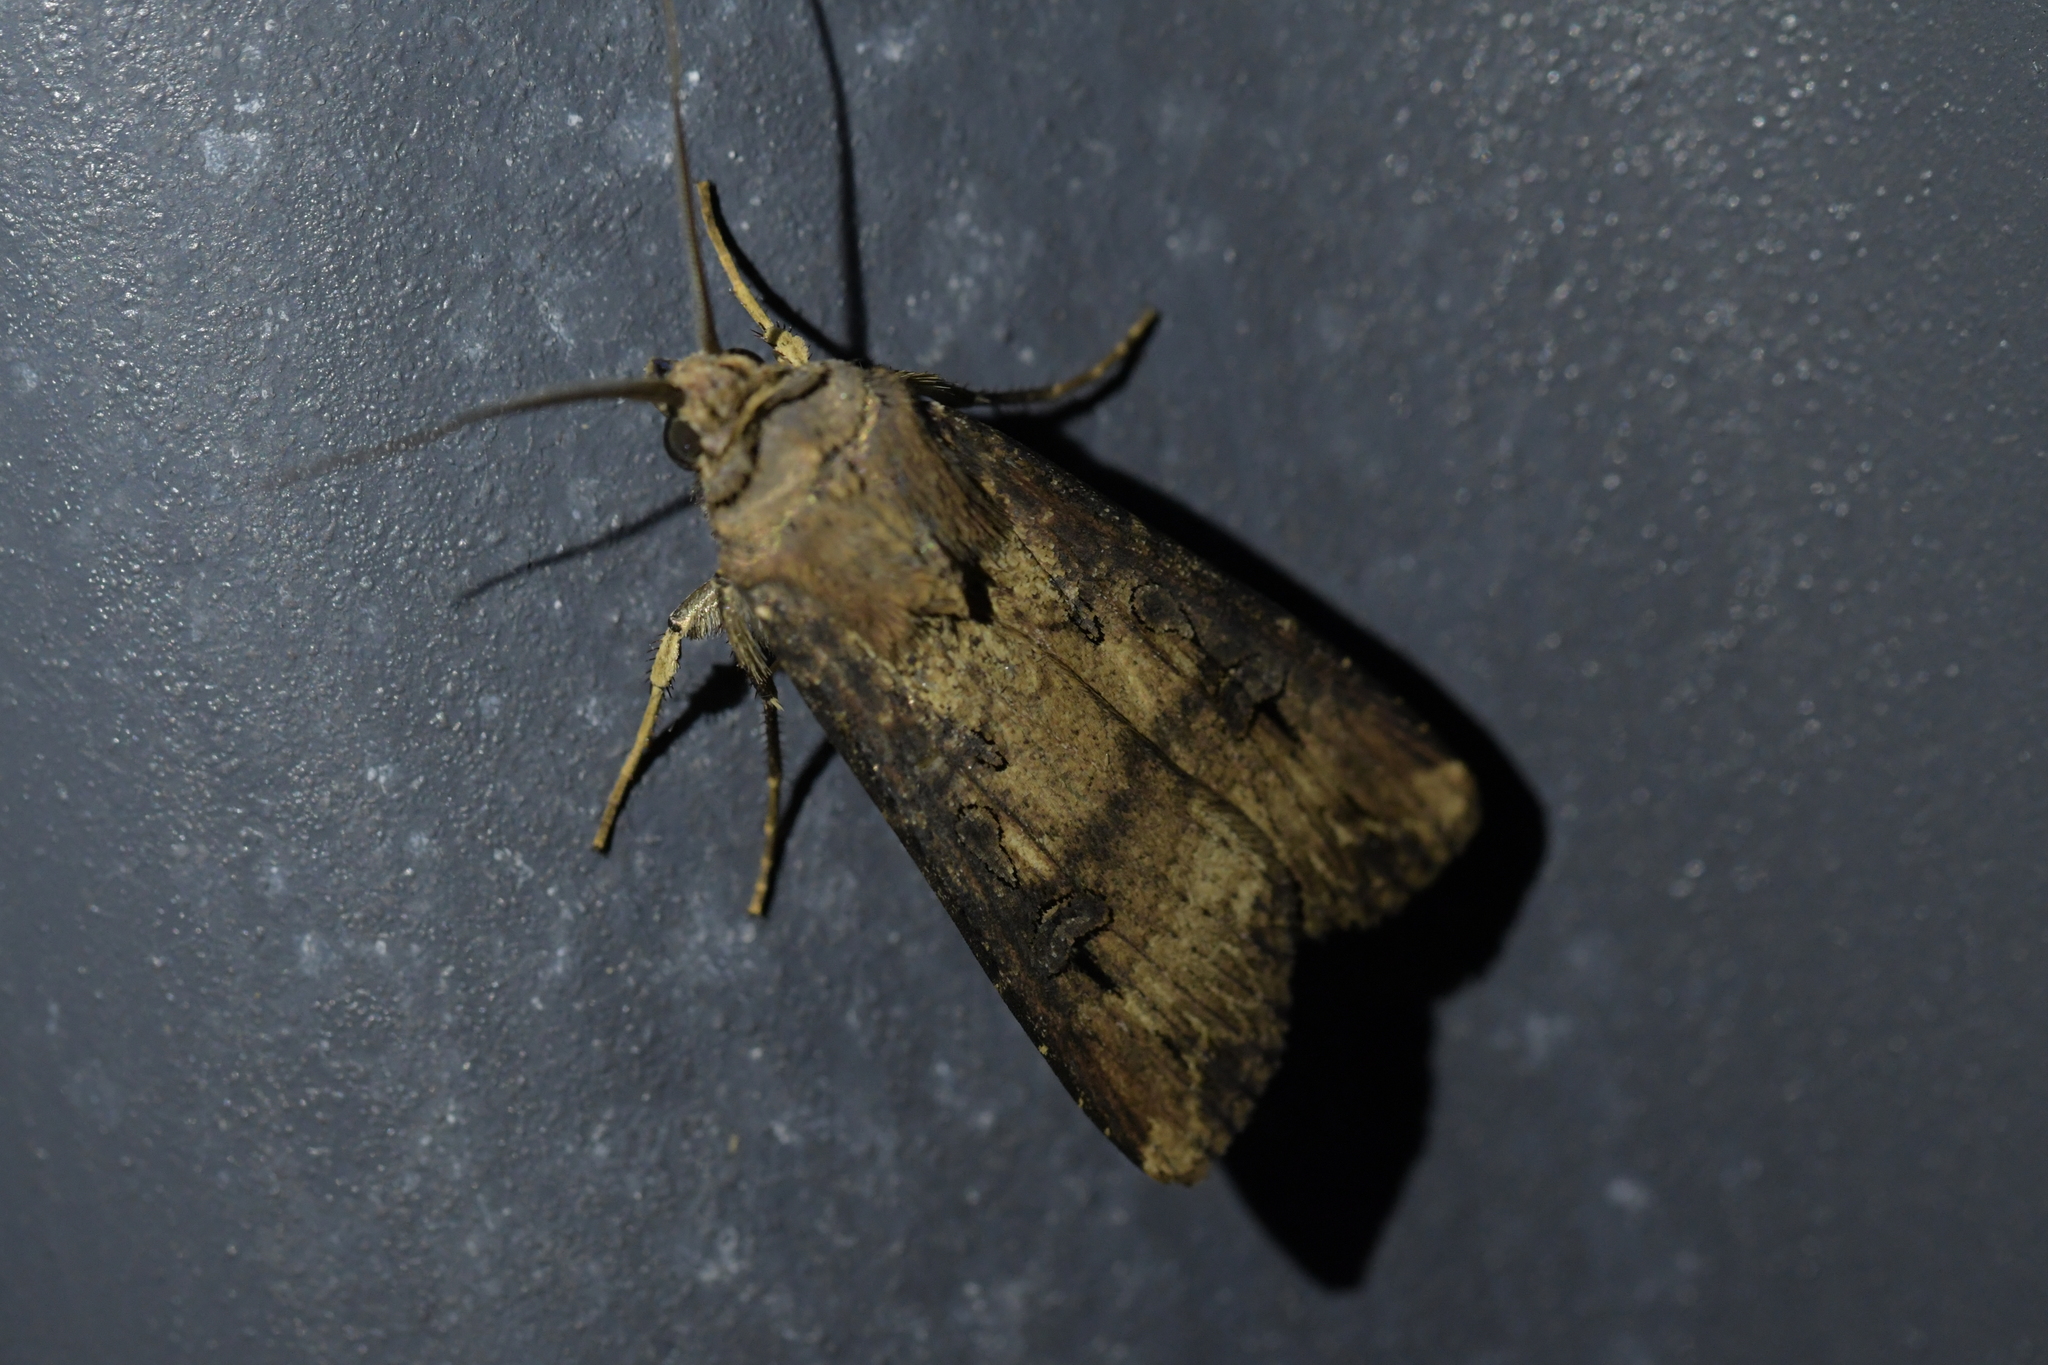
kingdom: Animalia
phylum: Arthropoda
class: Insecta
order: Lepidoptera
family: Noctuidae
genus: Agrotis
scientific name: Agrotis ipsilon
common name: Dark sword-grass
